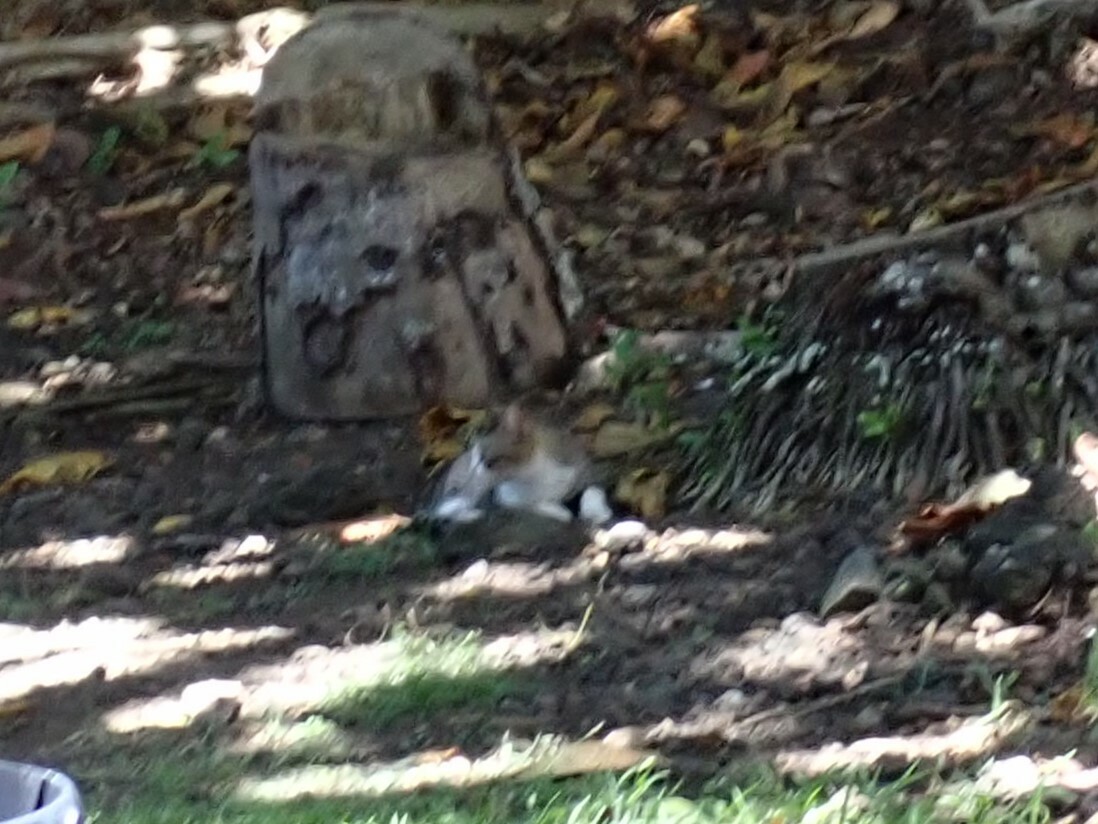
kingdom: Animalia
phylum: Chordata
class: Mammalia
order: Carnivora
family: Felidae
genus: Felis
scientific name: Felis catus
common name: Domestic cat
